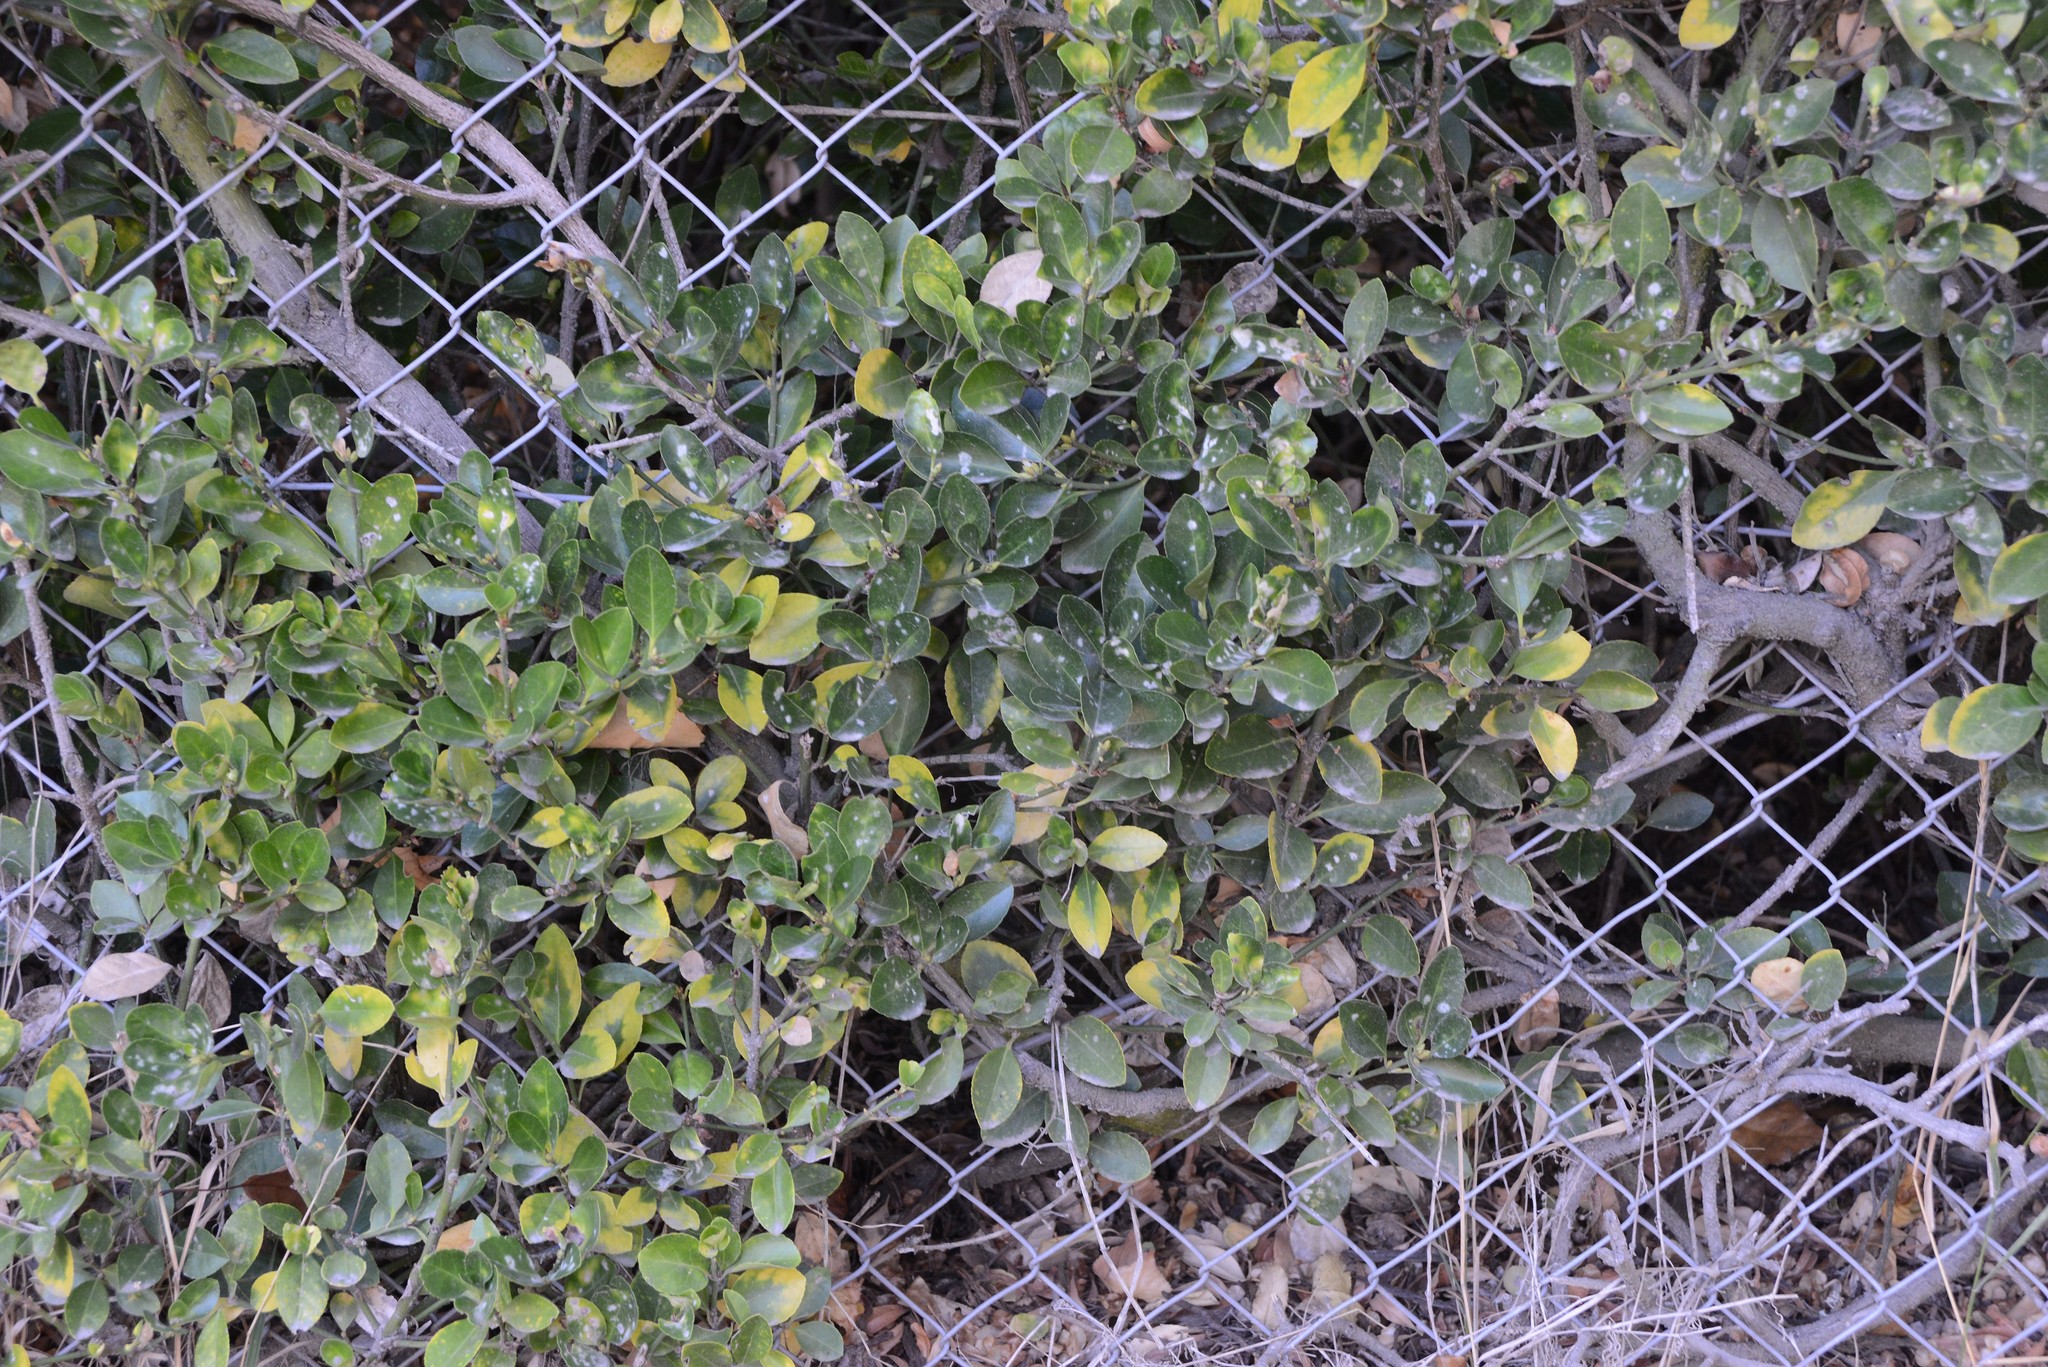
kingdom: Plantae
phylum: Tracheophyta
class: Magnoliopsida
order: Celastrales
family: Celastraceae
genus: Euonymus
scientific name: Euonymus japonicus
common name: Japanese spindletree
